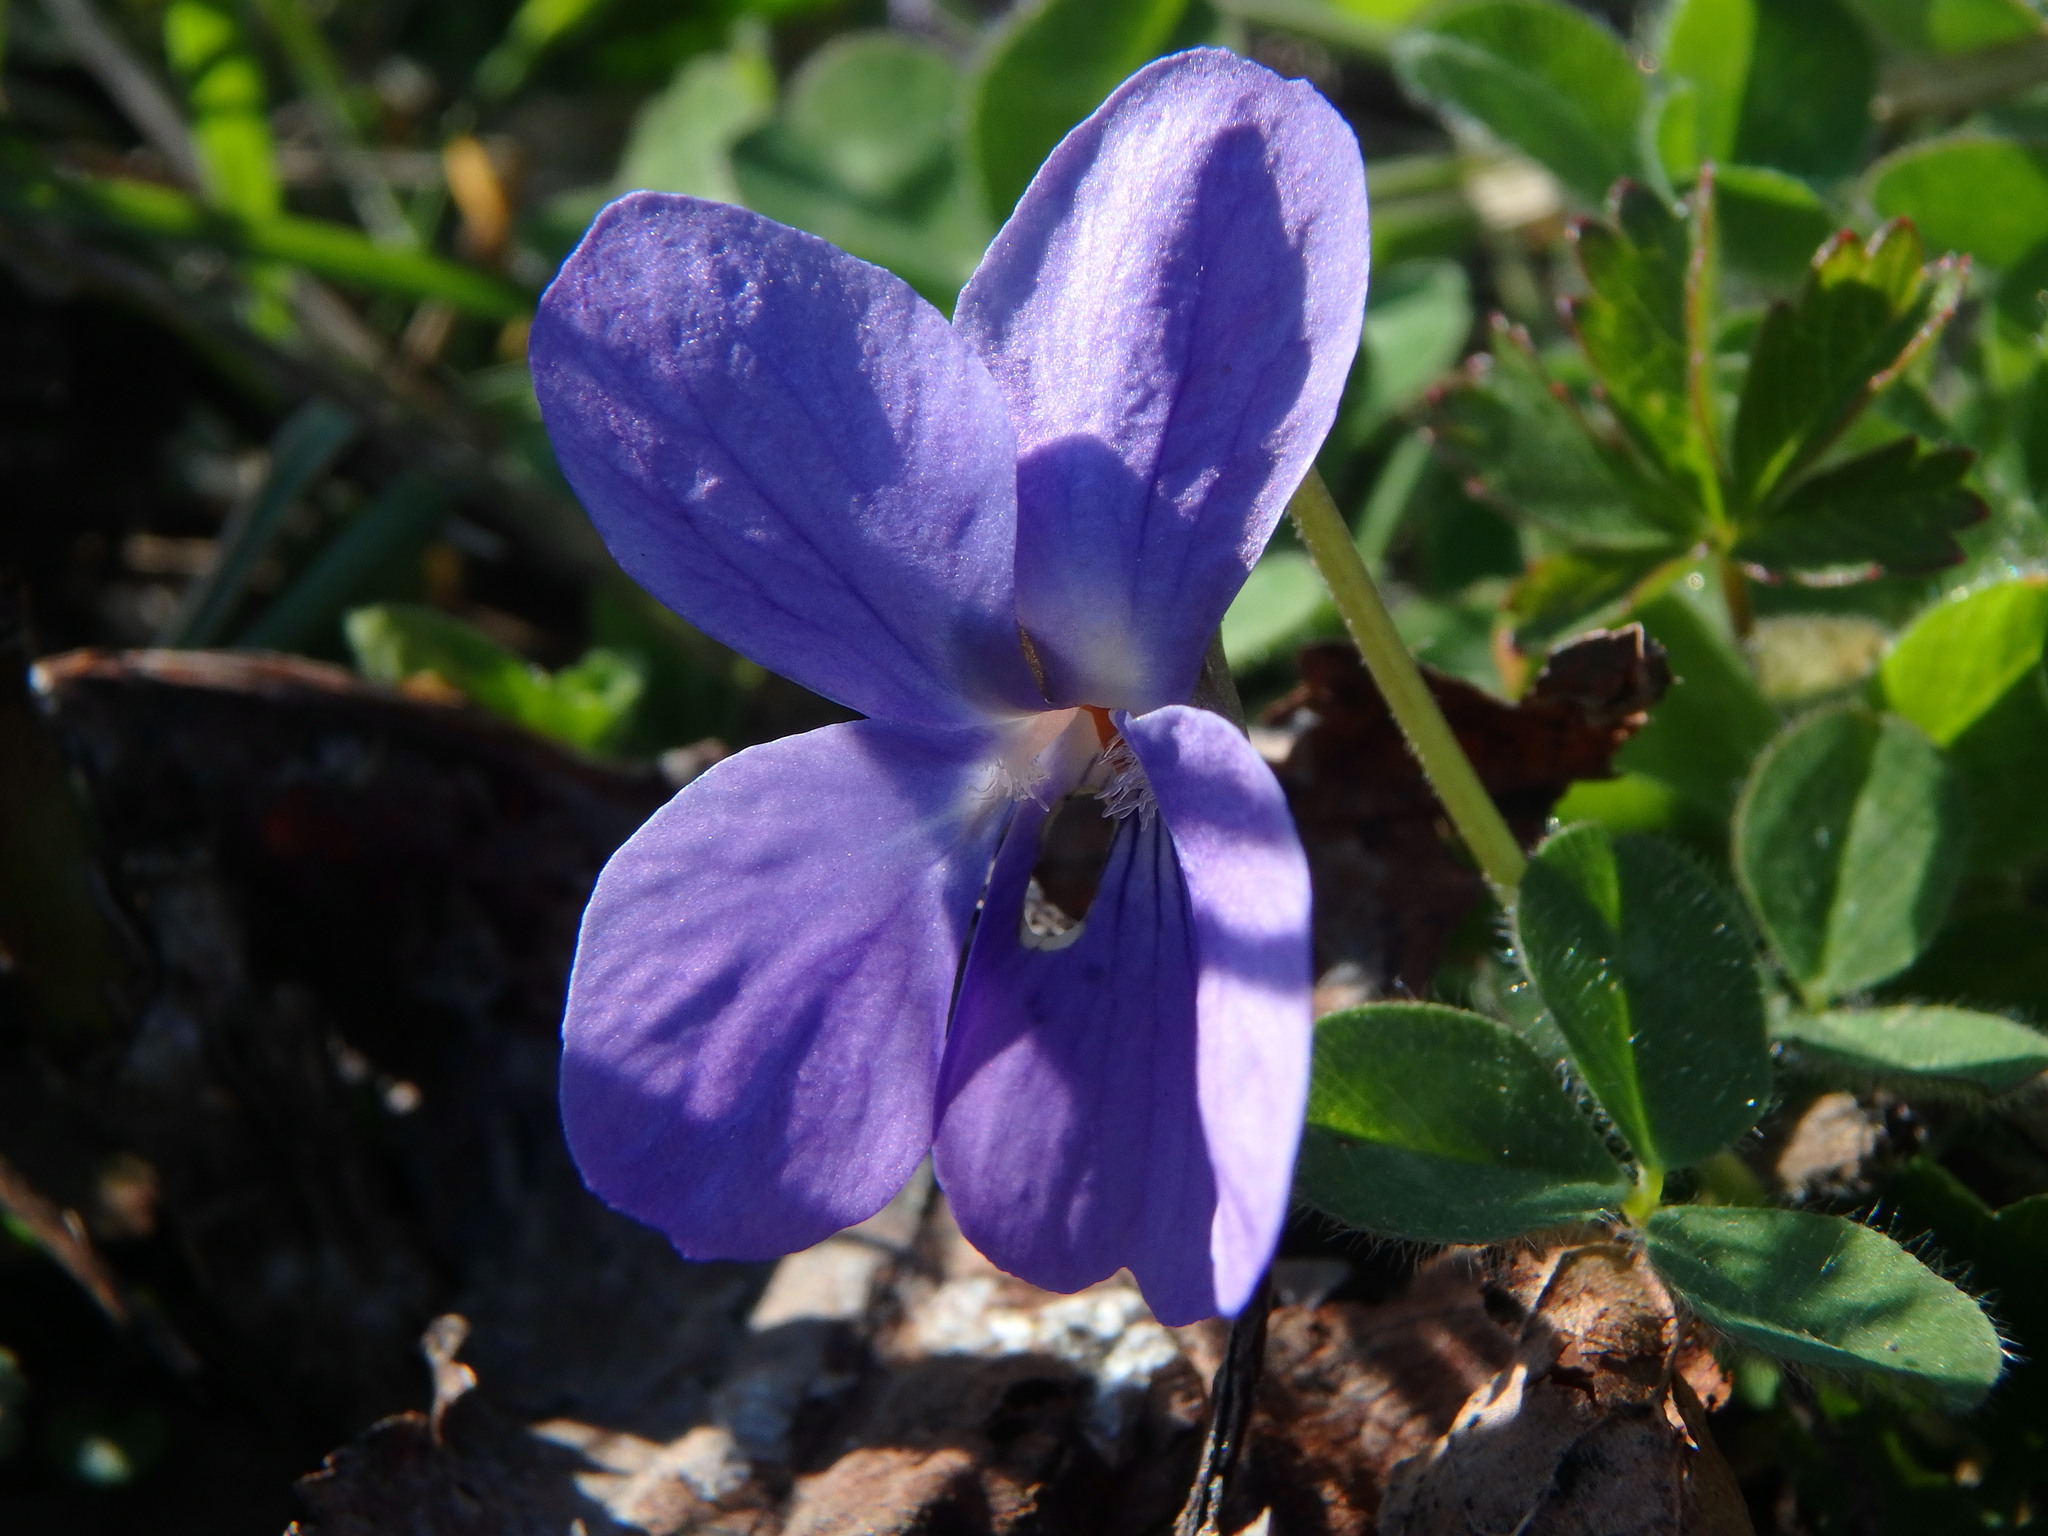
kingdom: Plantae
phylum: Tracheophyta
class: Magnoliopsida
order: Malpighiales
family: Violaceae
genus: Viola
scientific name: Viola odorata
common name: Sweet violet
